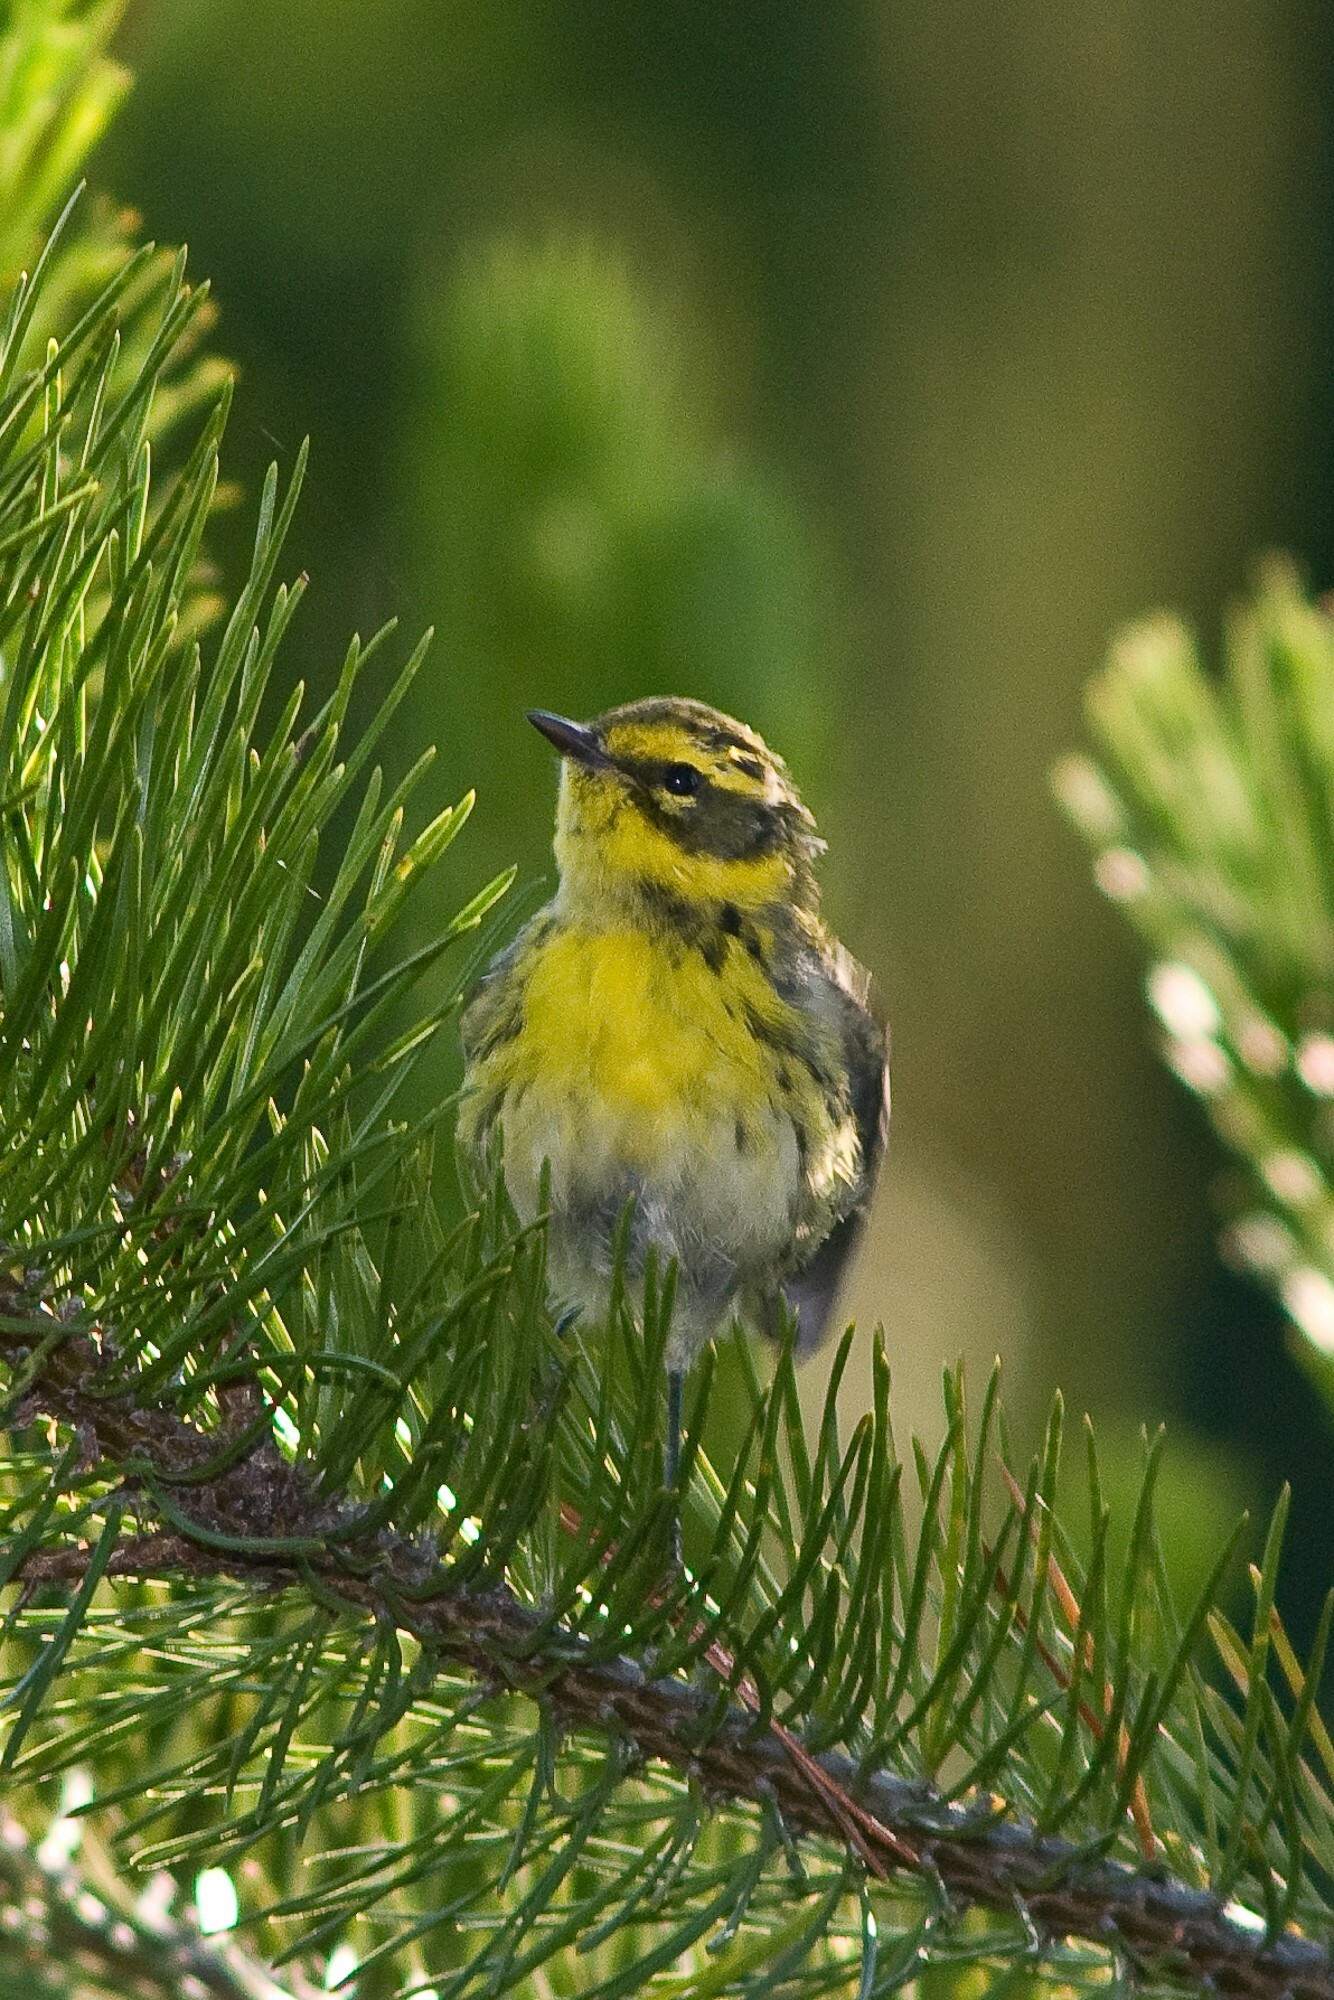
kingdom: Animalia
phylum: Chordata
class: Aves
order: Passeriformes
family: Parulidae
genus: Setophaga
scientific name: Setophaga townsendi
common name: Townsend's warbler
